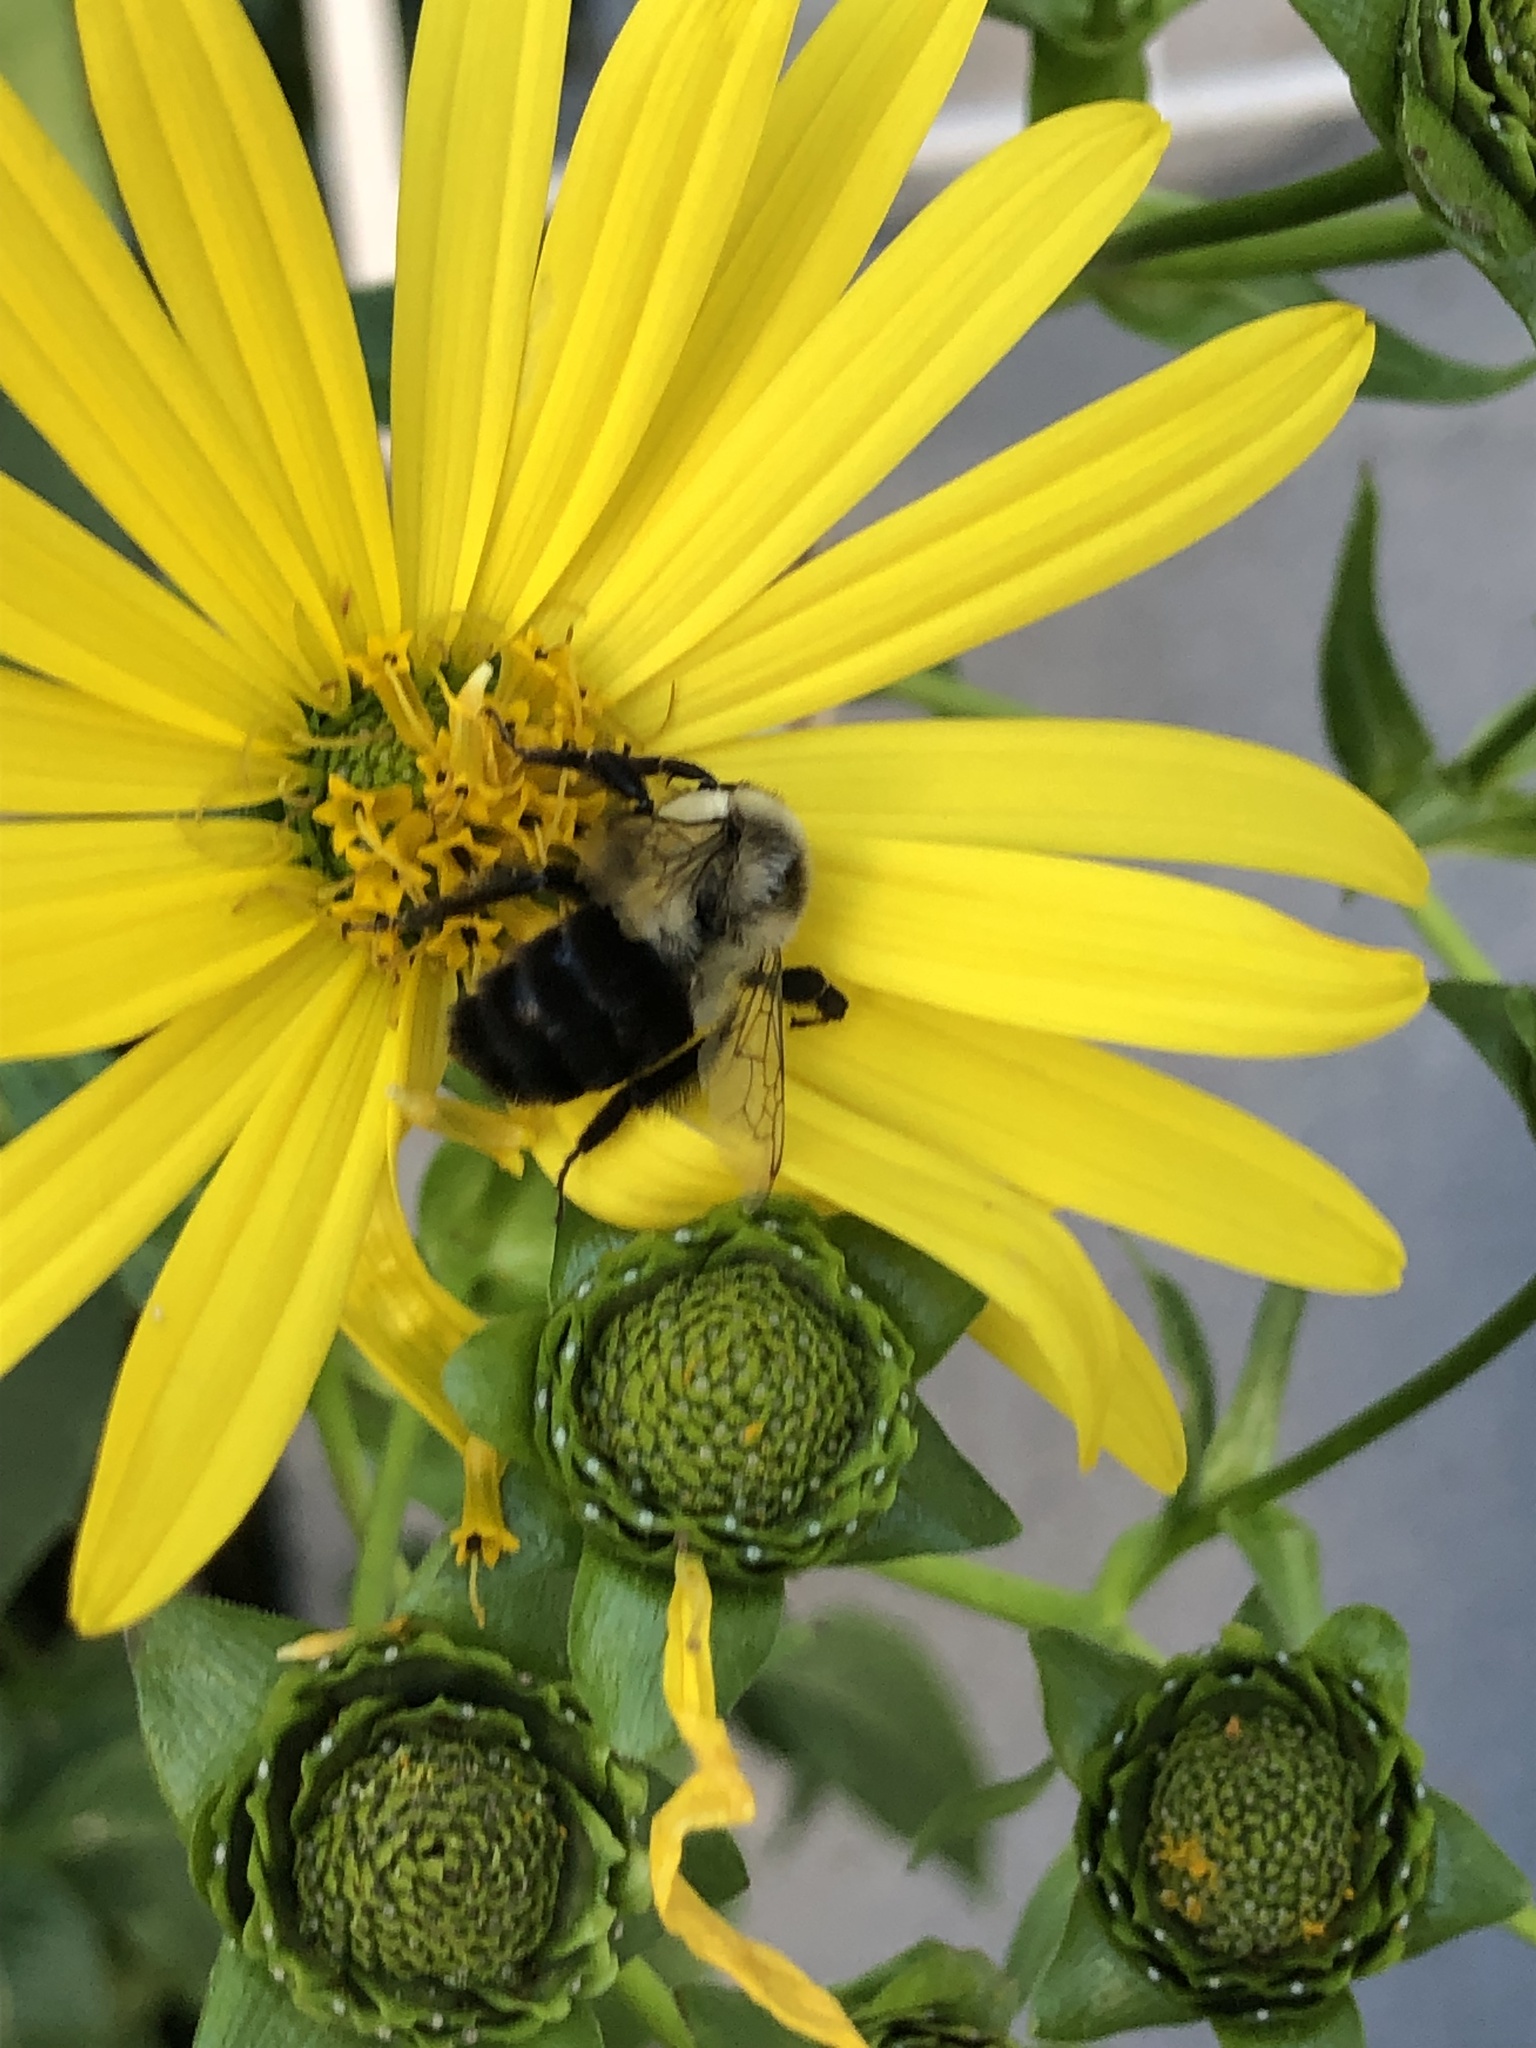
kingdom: Animalia
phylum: Arthropoda
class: Insecta
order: Hymenoptera
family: Apidae
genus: Bombus
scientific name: Bombus impatiens
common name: Common eastern bumble bee
